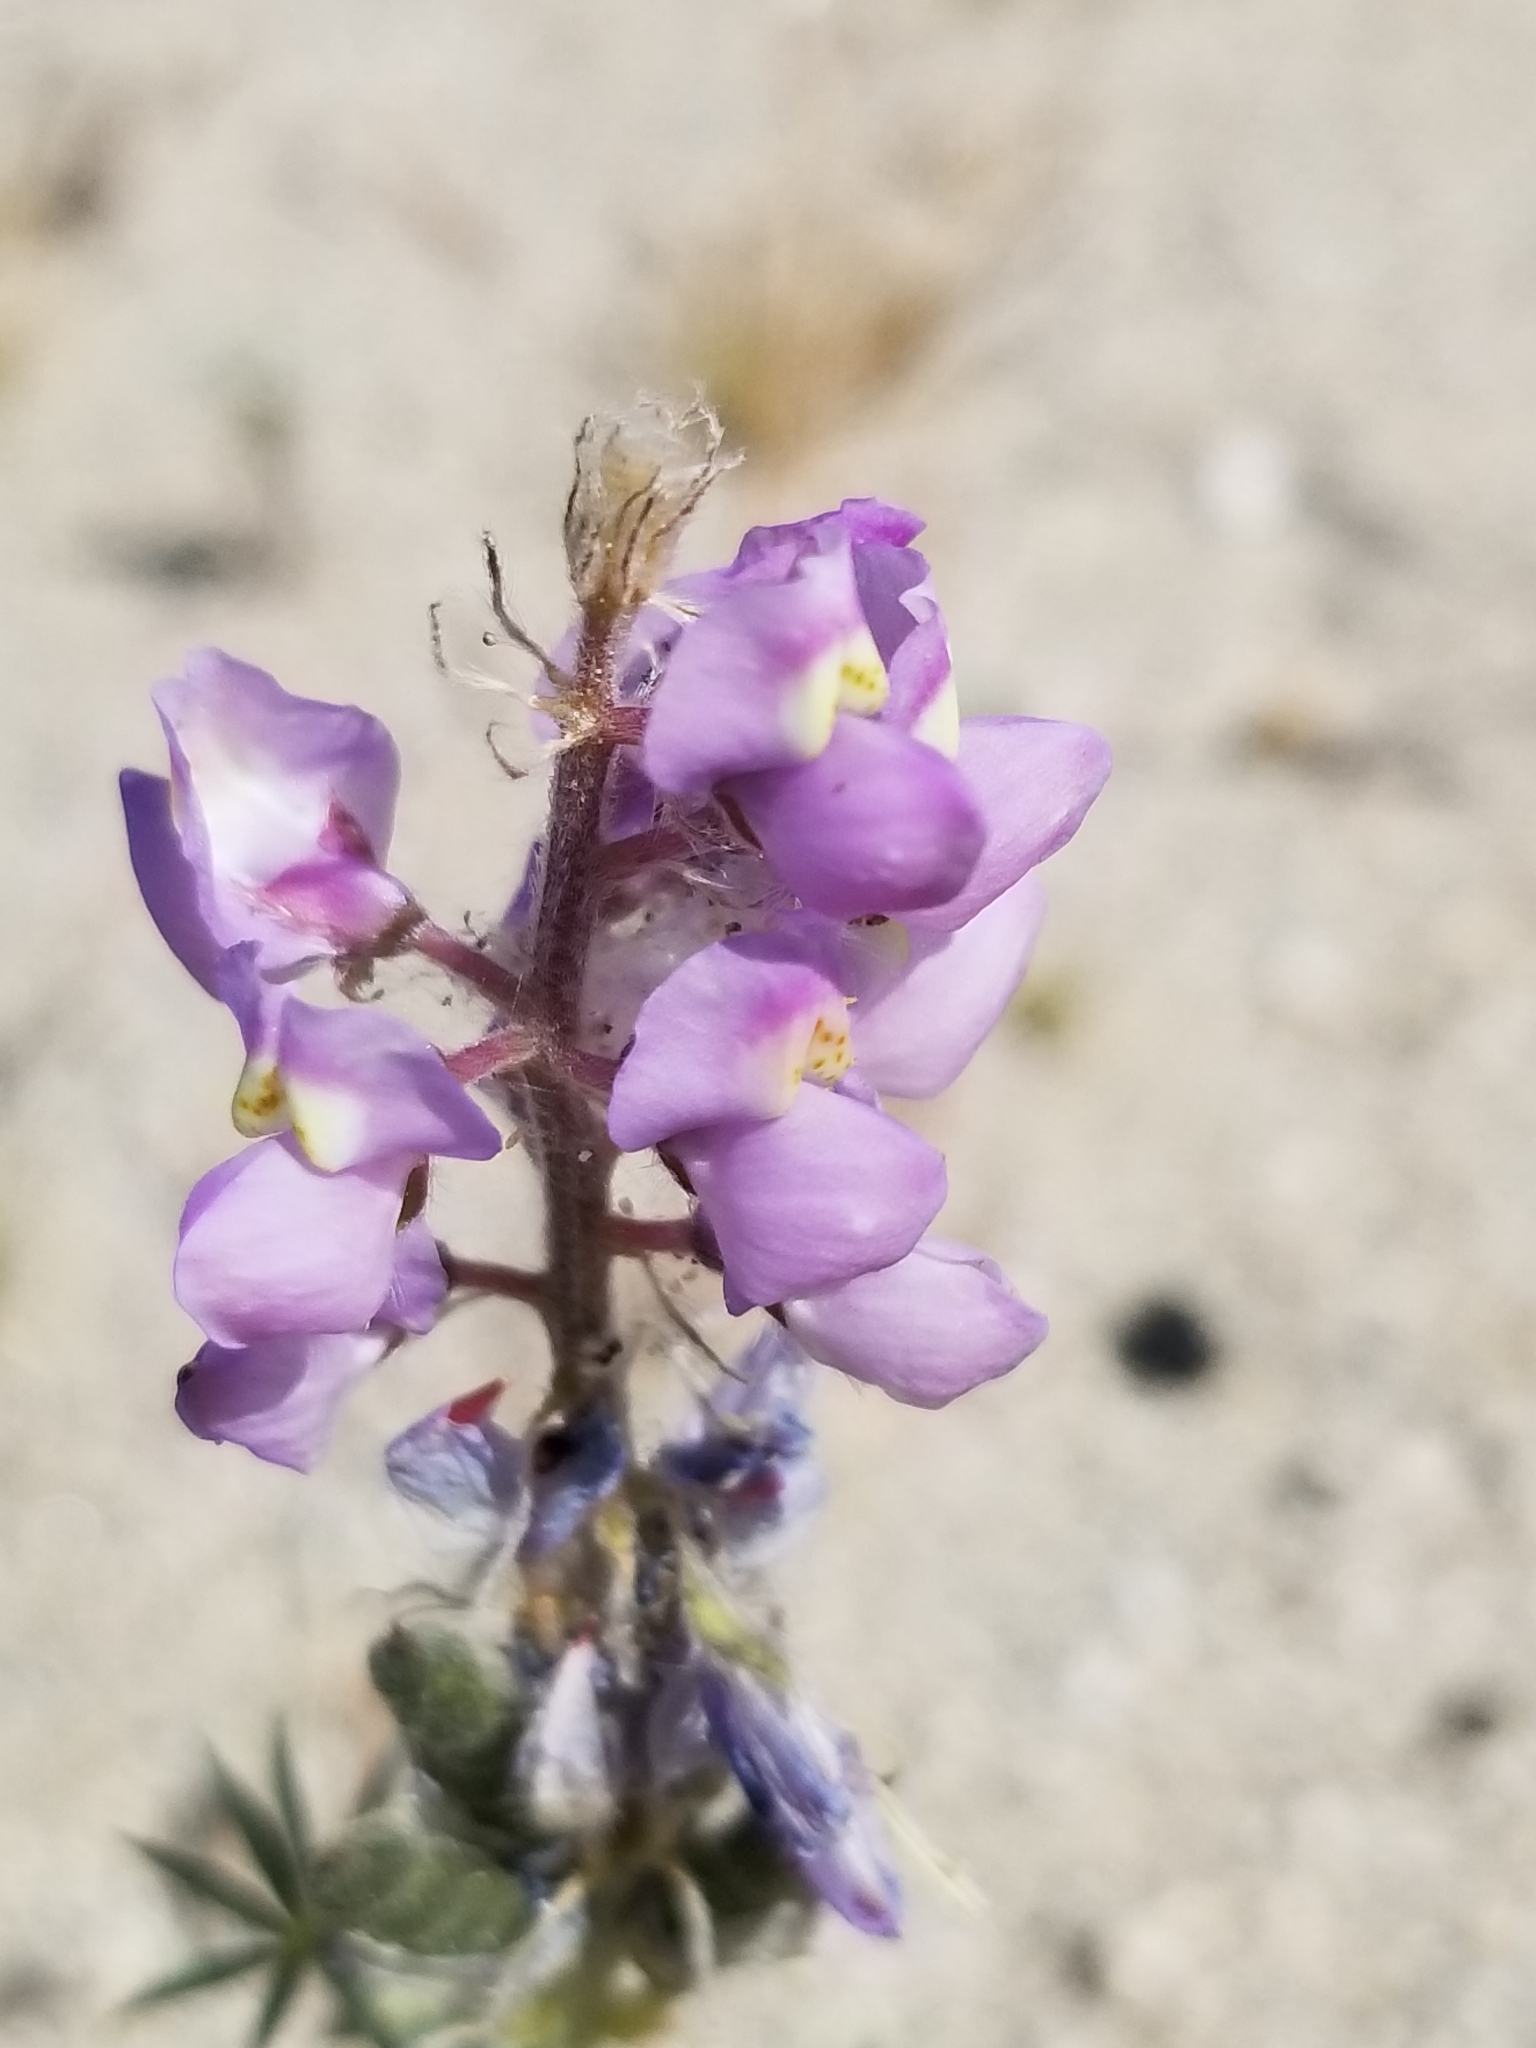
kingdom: Plantae
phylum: Tracheophyta
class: Magnoliopsida
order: Fabales
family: Fabaceae
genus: Lupinus
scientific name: Lupinus arizonicus
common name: Arizona lupine
